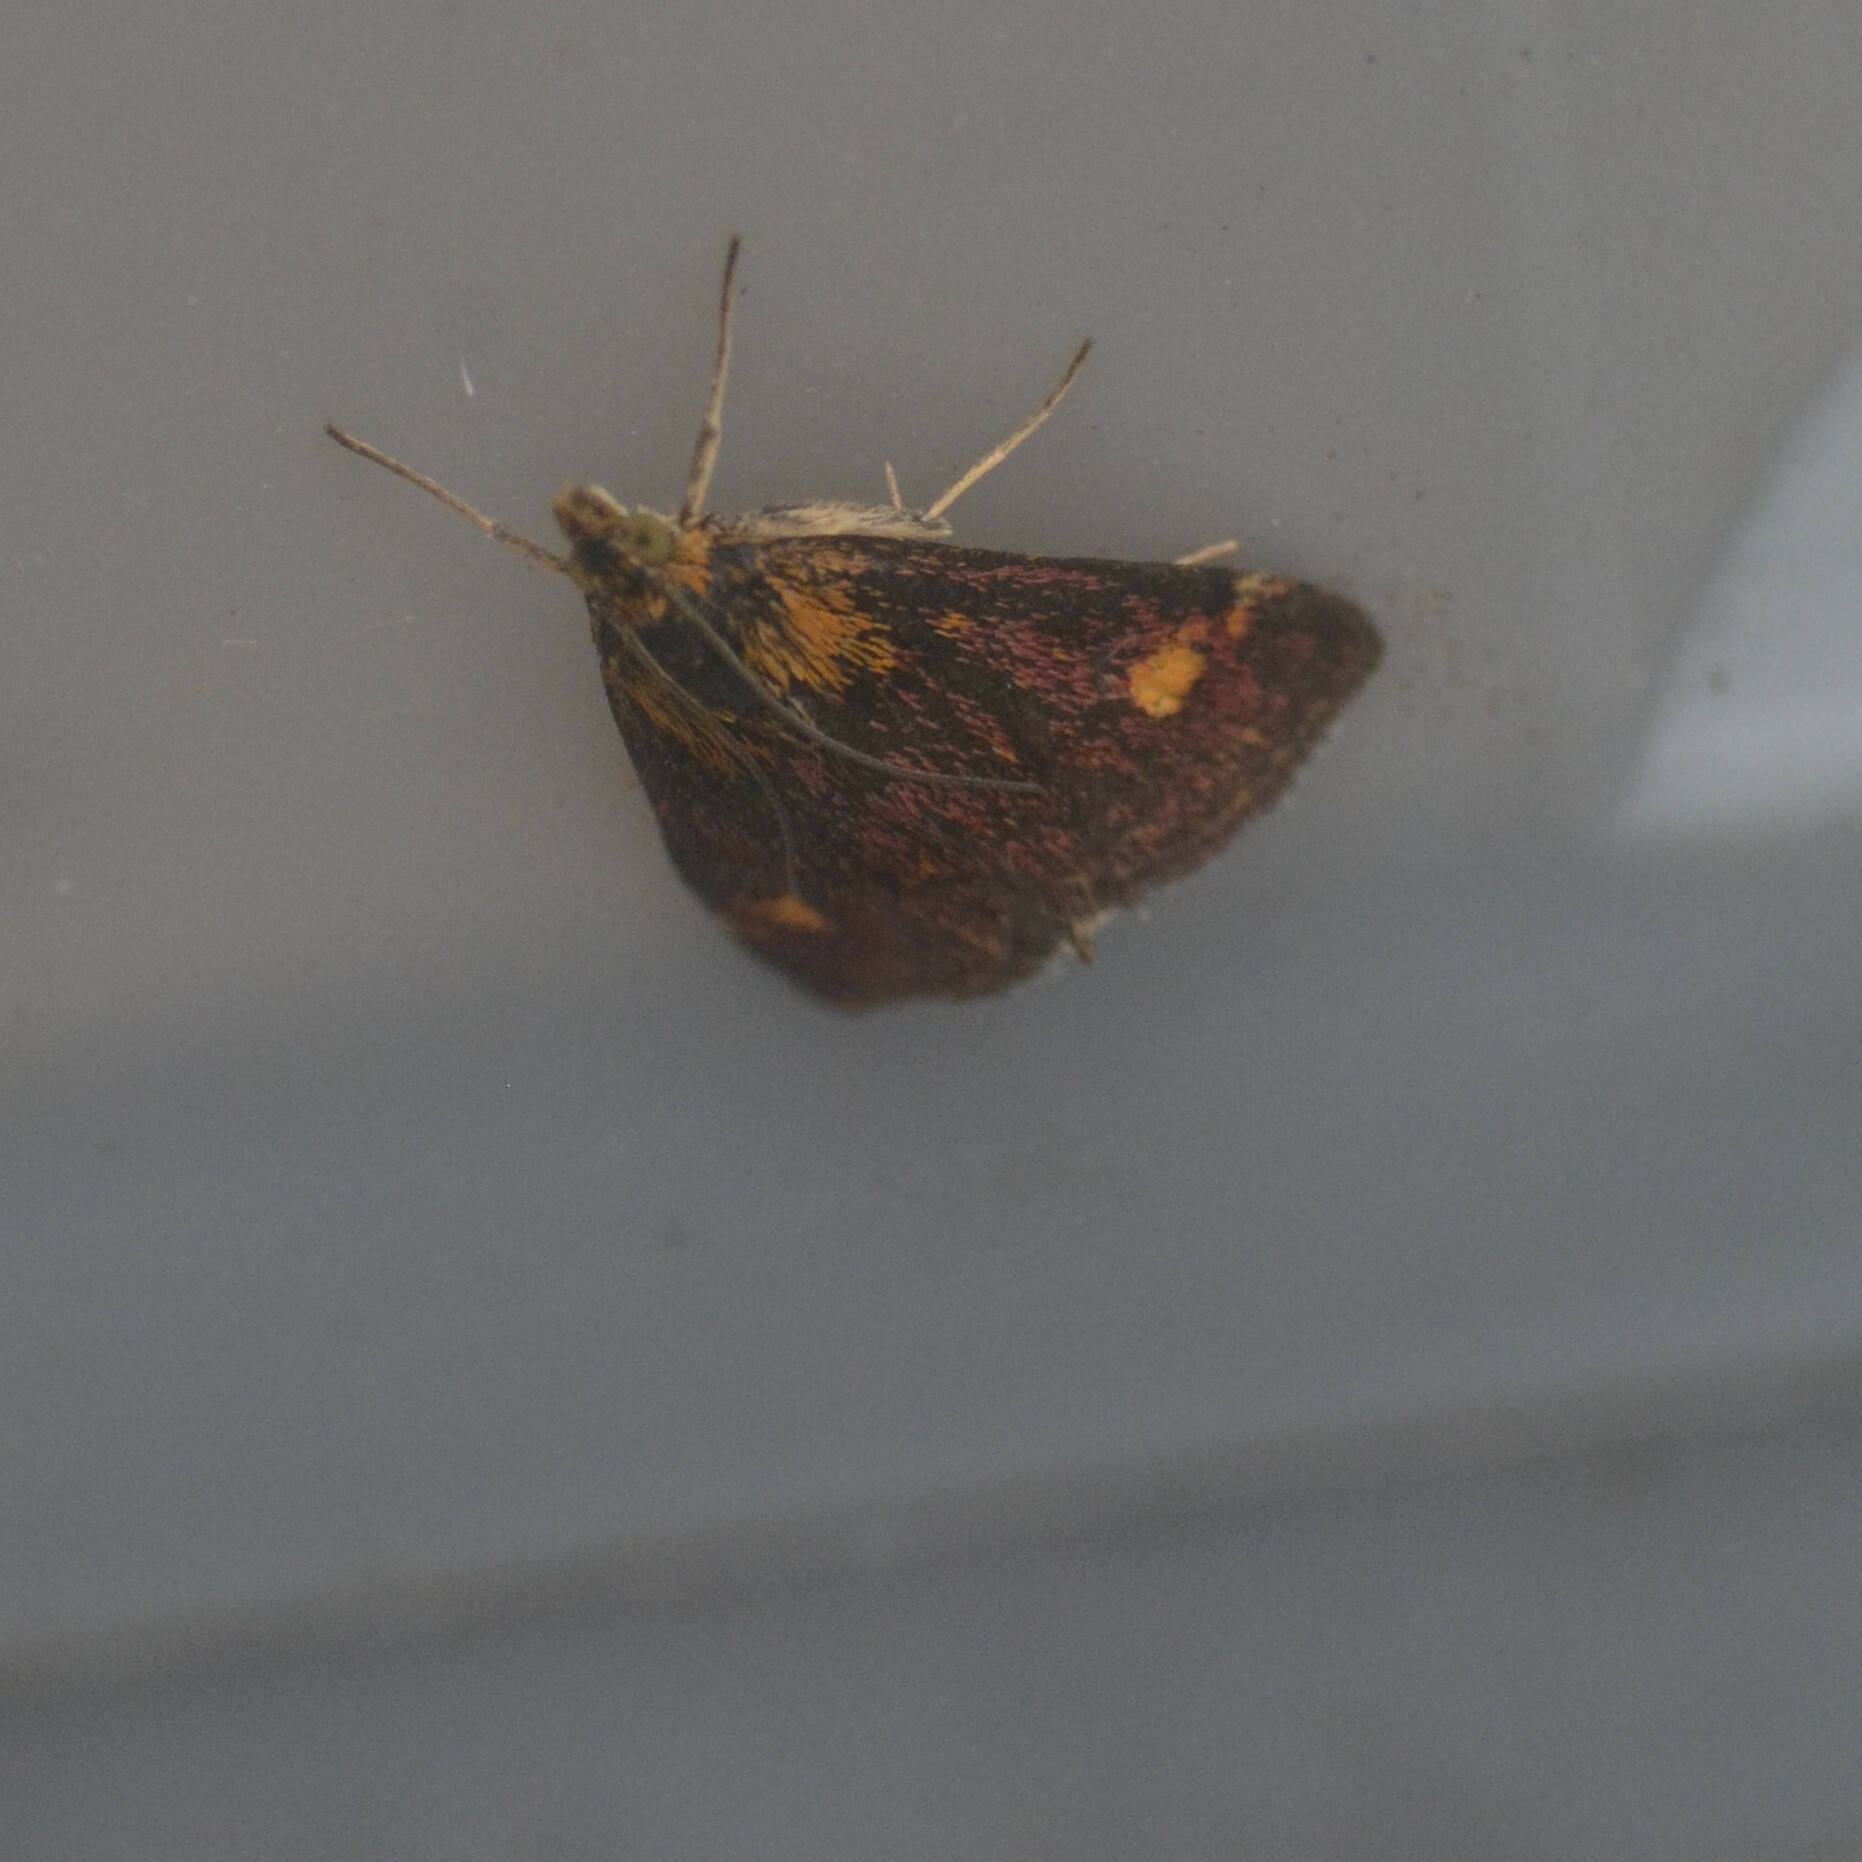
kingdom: Animalia
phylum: Arthropoda
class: Insecta
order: Lepidoptera
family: Crambidae
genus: Pyrausta
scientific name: Pyrausta aurata
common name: Small purple & gold
